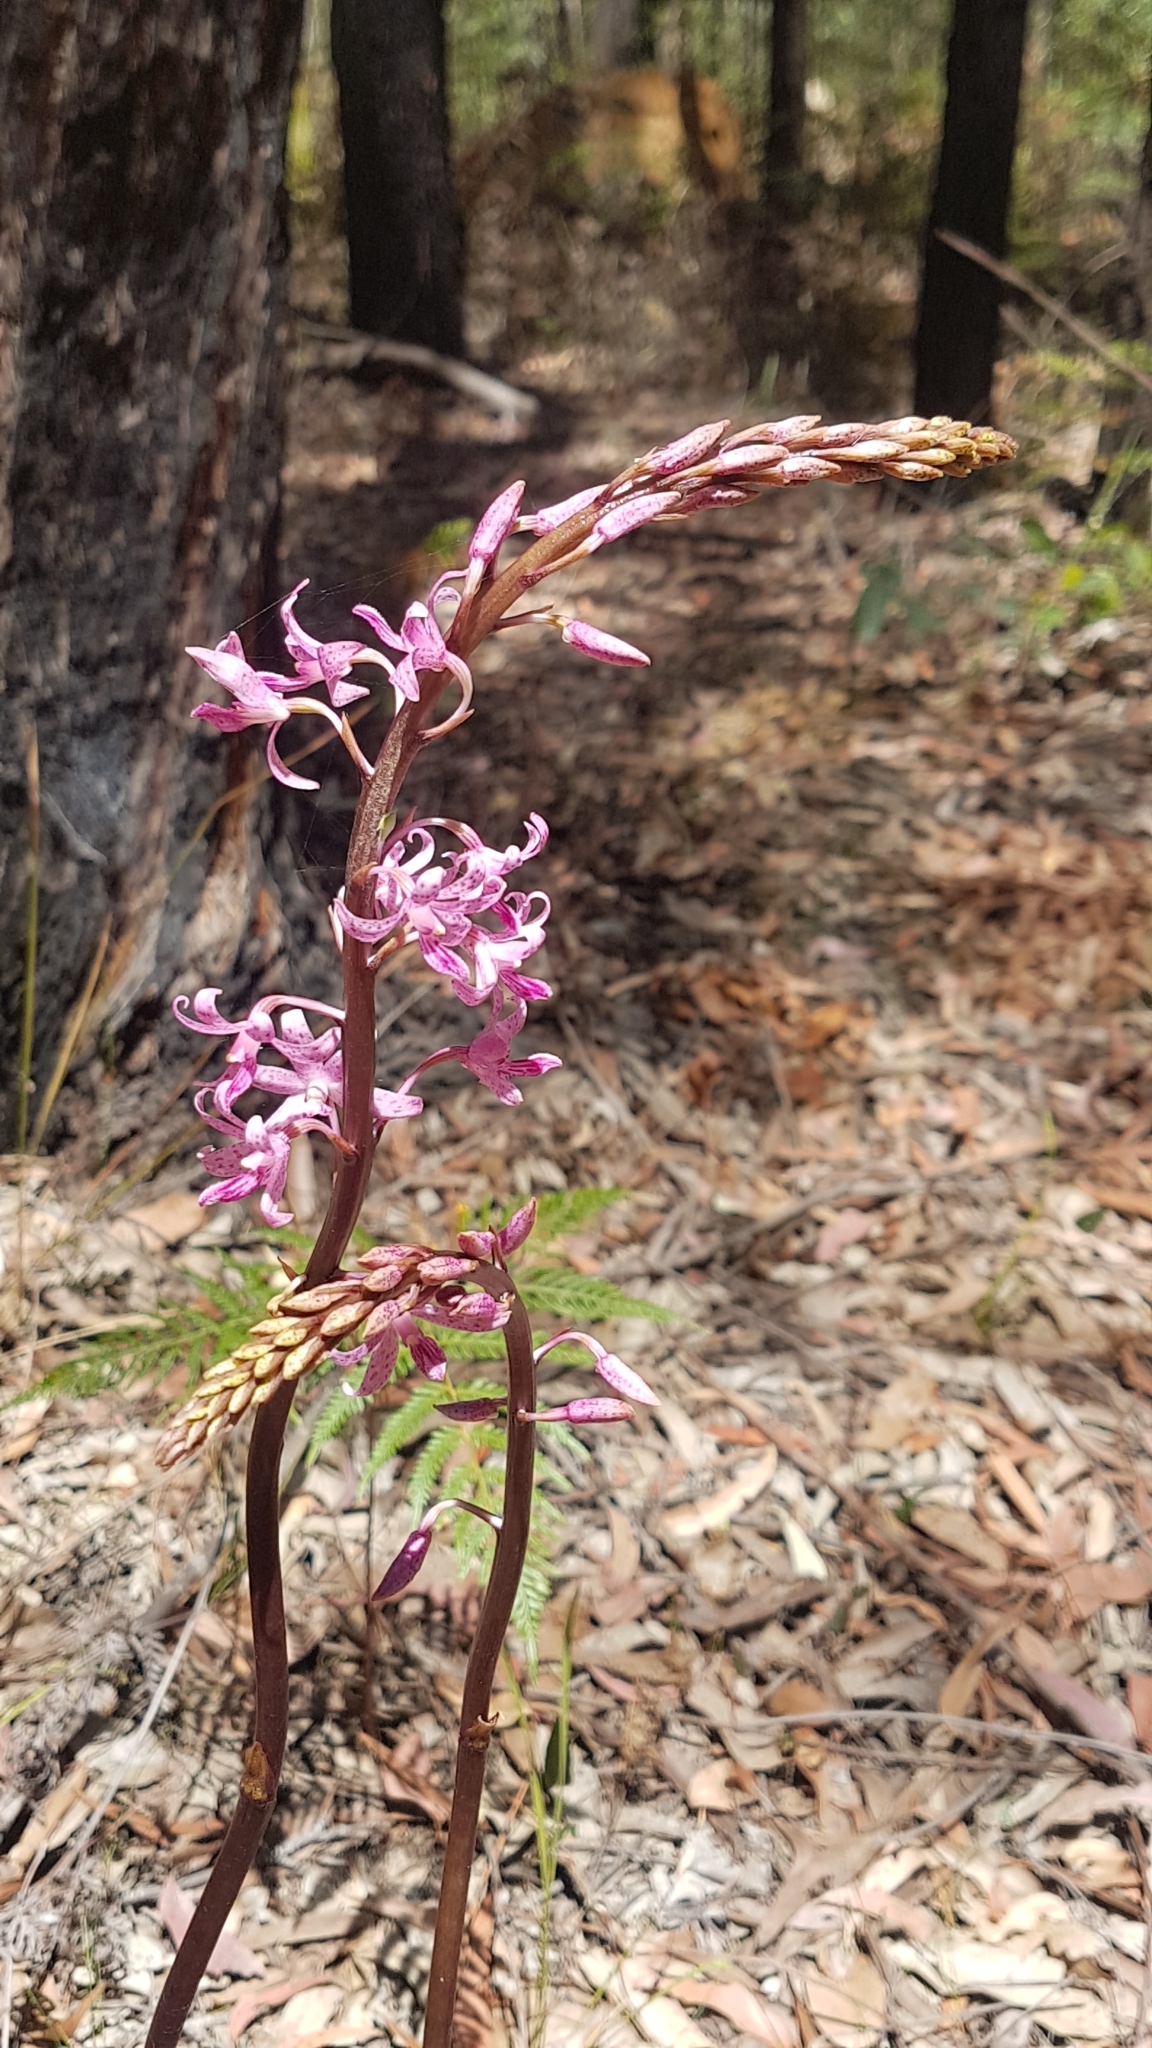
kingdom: Plantae
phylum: Tracheophyta
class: Liliopsida
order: Asparagales
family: Orchidaceae
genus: Dipodium
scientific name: Dipodium roseum
